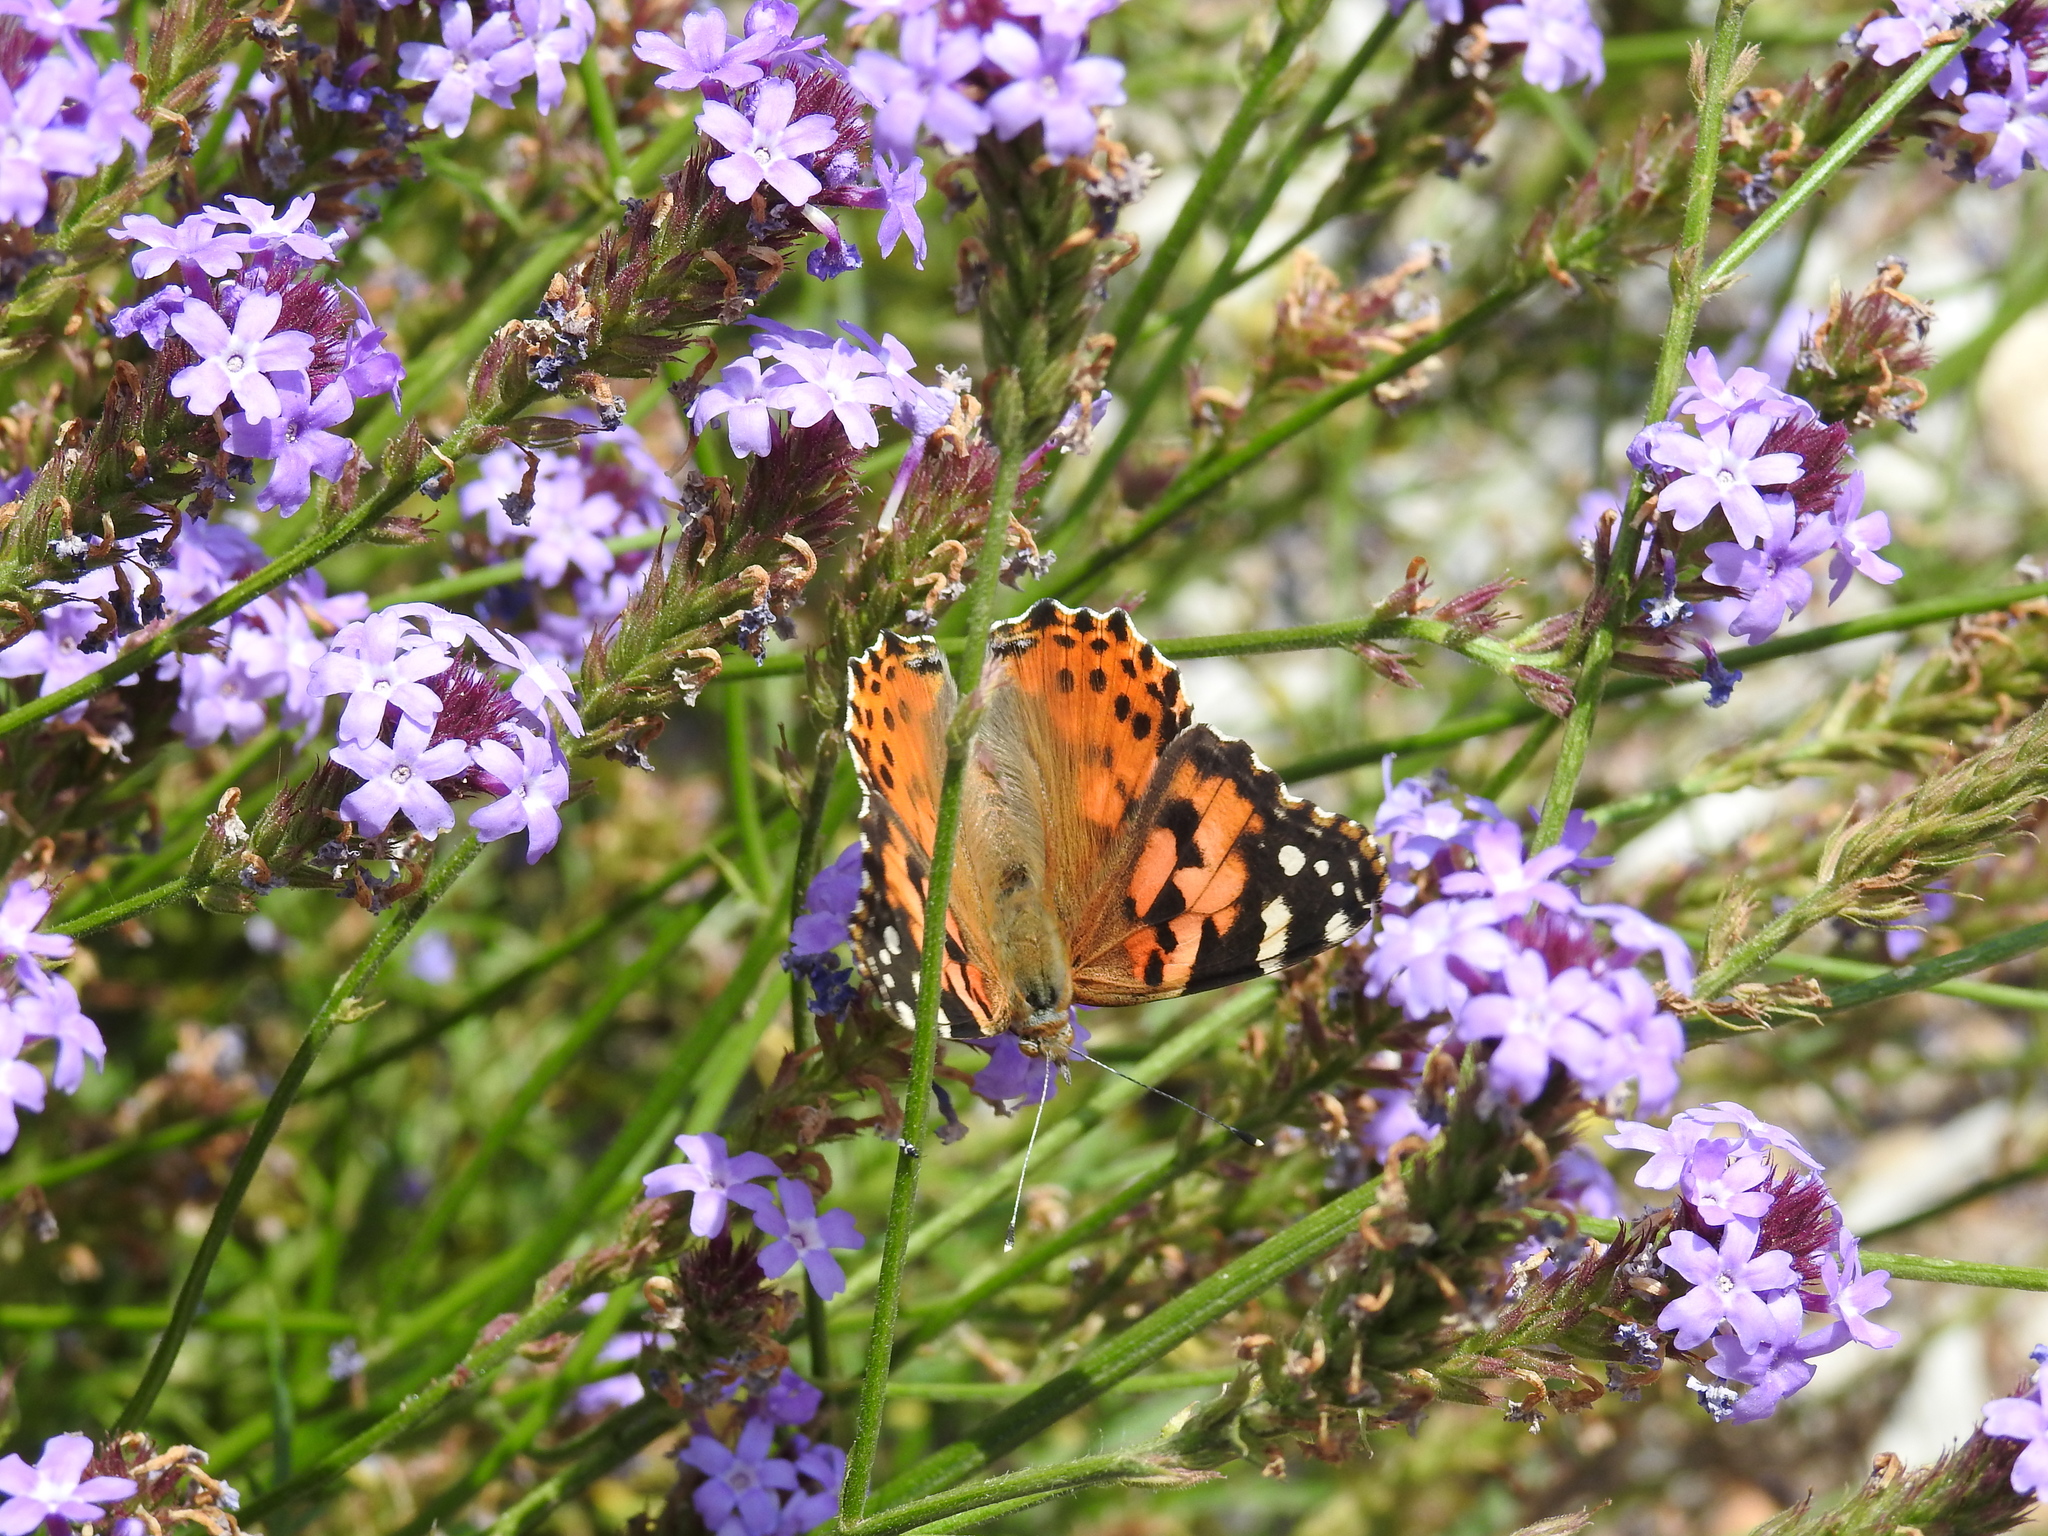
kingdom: Animalia
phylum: Arthropoda
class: Insecta
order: Lepidoptera
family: Nymphalidae
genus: Vanessa
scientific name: Vanessa cardui
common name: Painted lady
